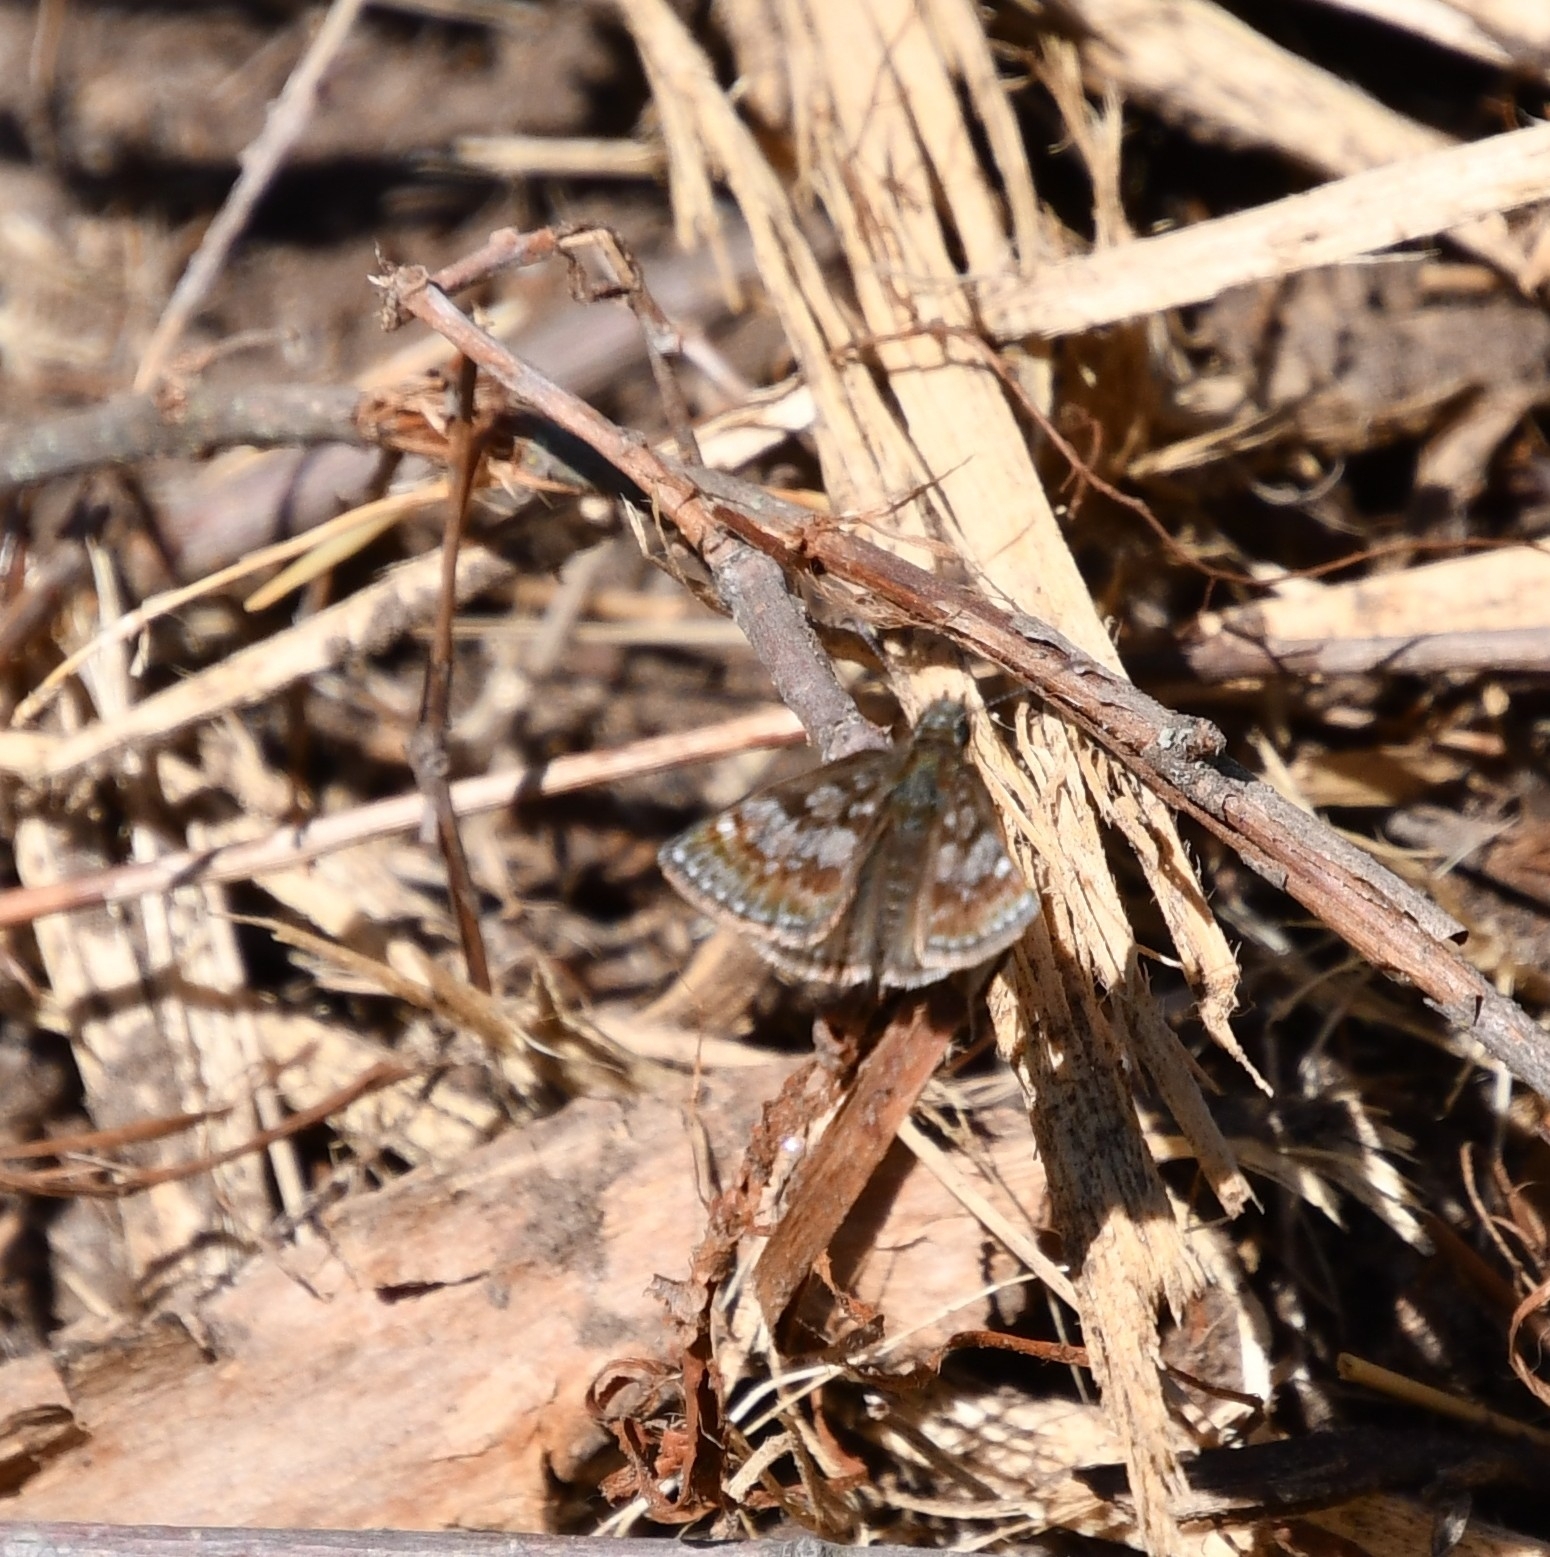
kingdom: Animalia
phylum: Arthropoda
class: Insecta
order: Lepidoptera
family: Hesperiidae
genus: Erynnis
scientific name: Erynnis tages
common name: Dingy skipper
